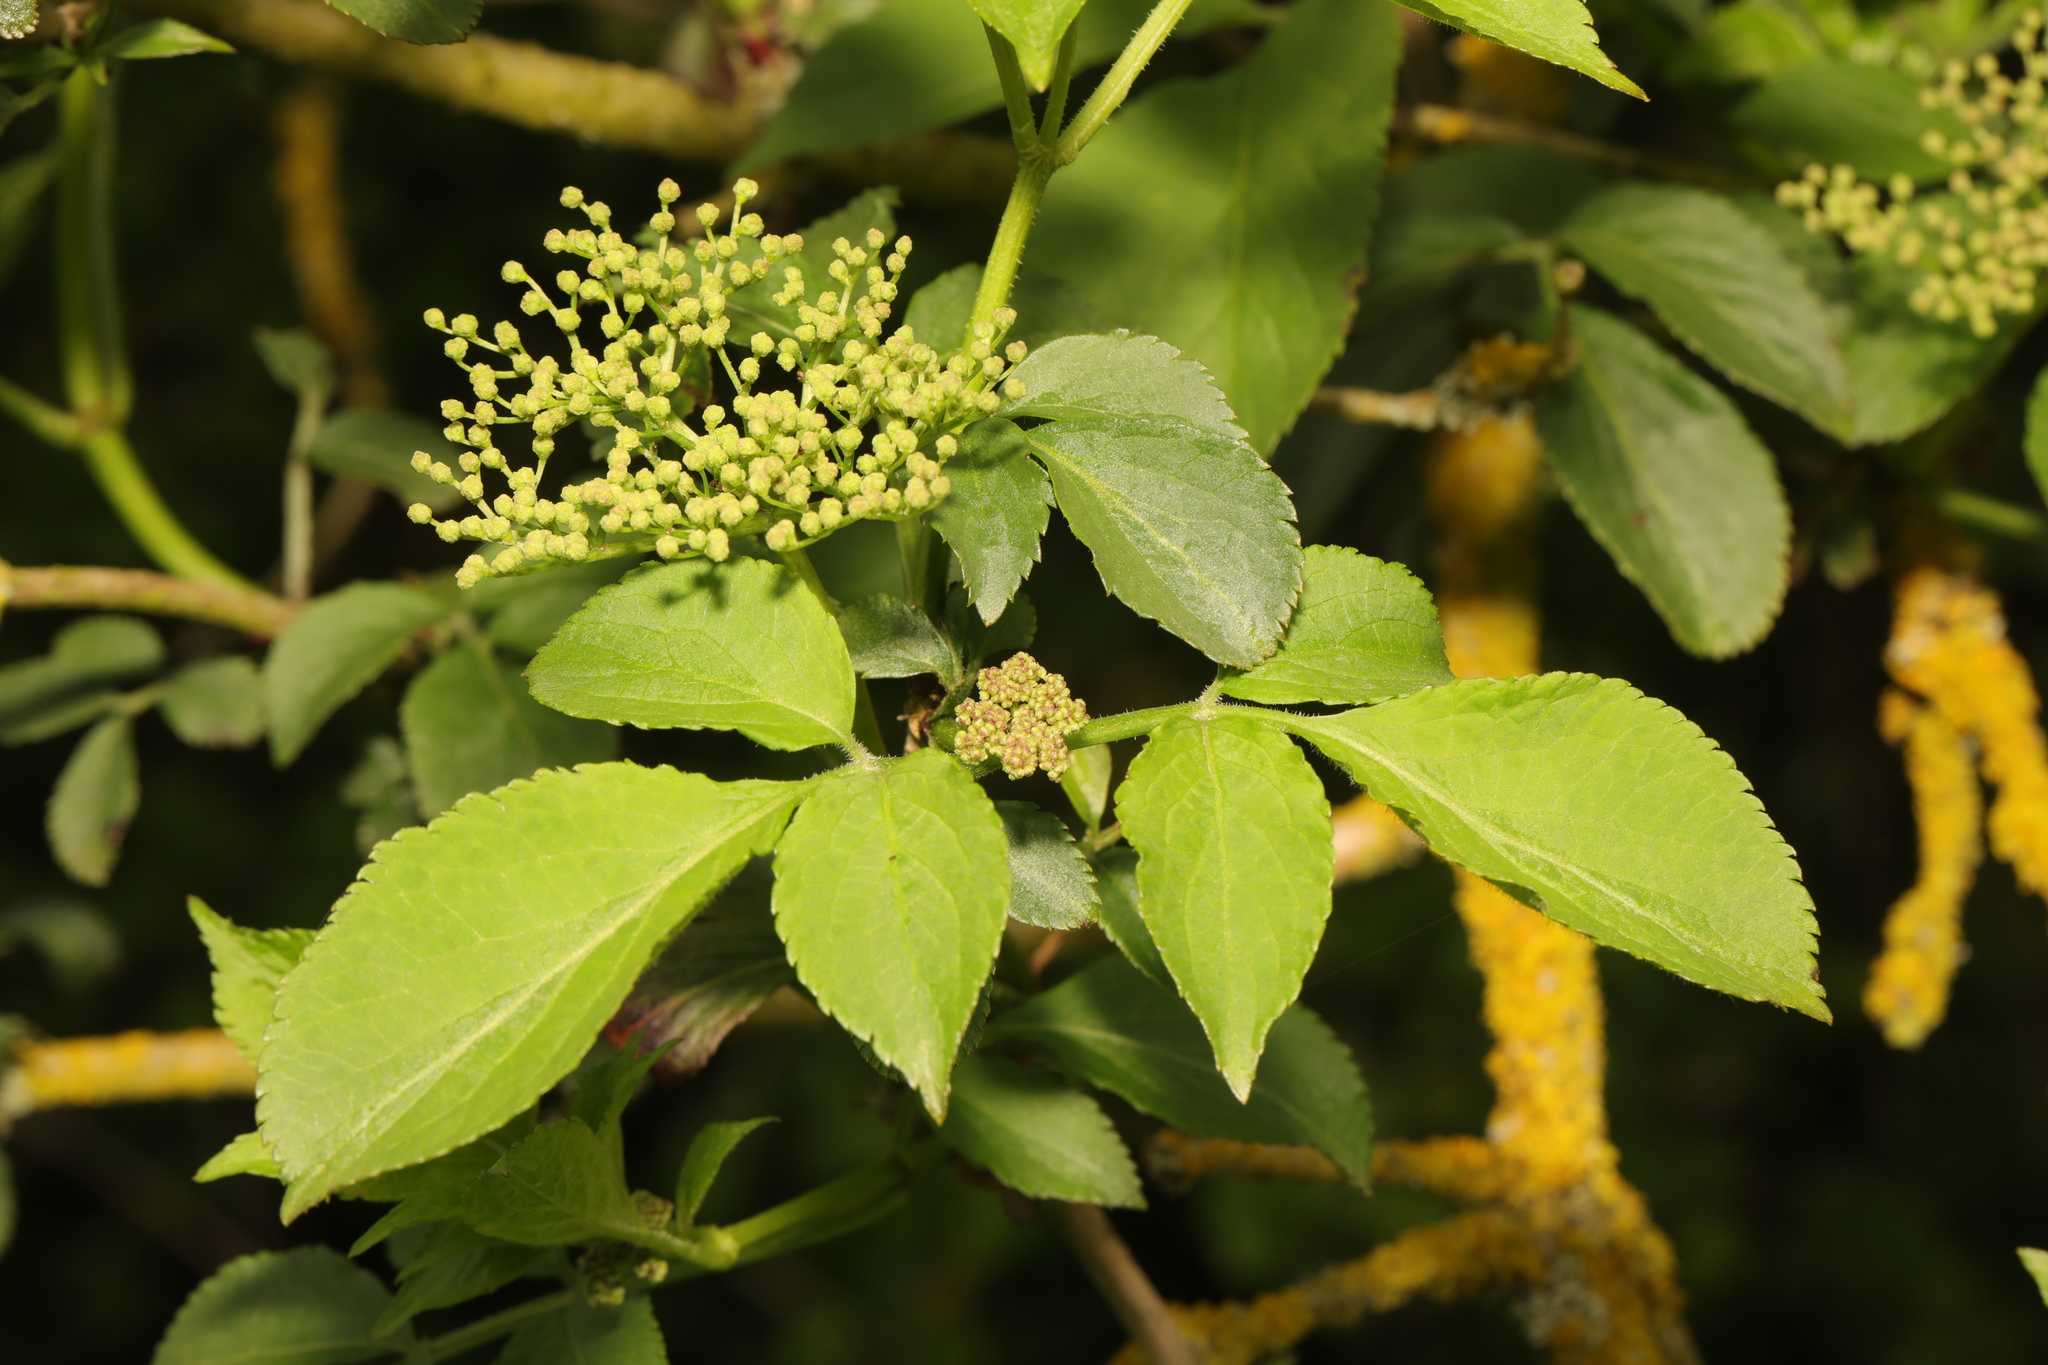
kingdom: Plantae
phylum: Tracheophyta
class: Magnoliopsida
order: Dipsacales
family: Viburnaceae
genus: Sambucus
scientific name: Sambucus nigra
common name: Elder
